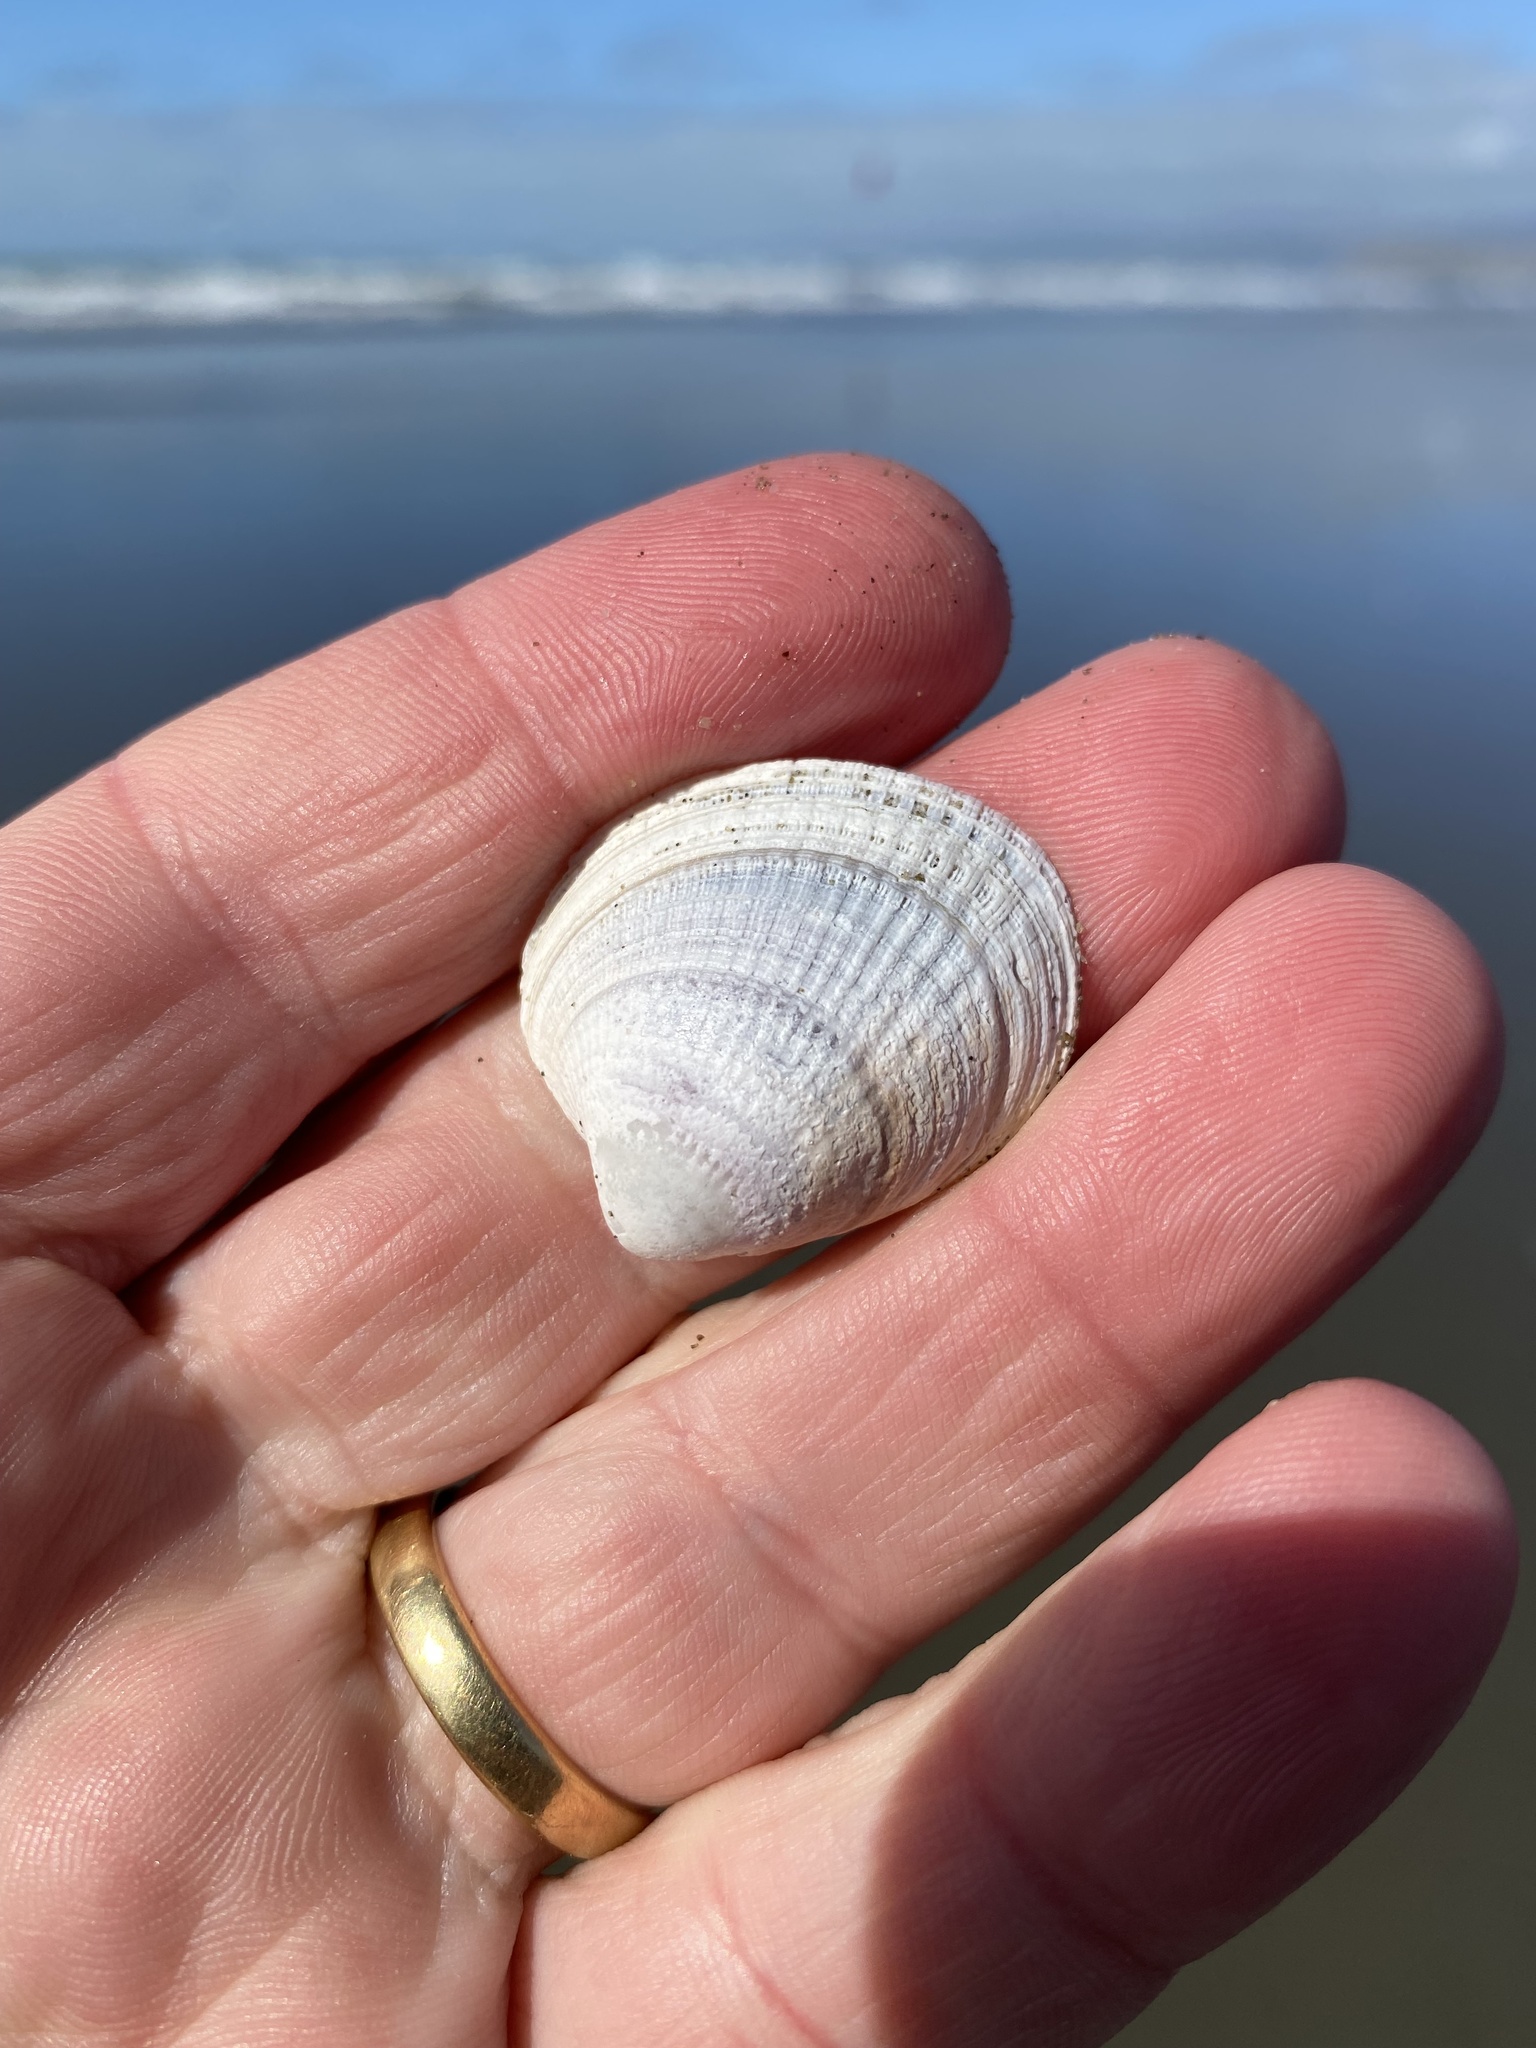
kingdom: Animalia
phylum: Mollusca
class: Bivalvia
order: Venerida
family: Veneridae
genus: Austrovenus
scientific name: Austrovenus stutchburyi
